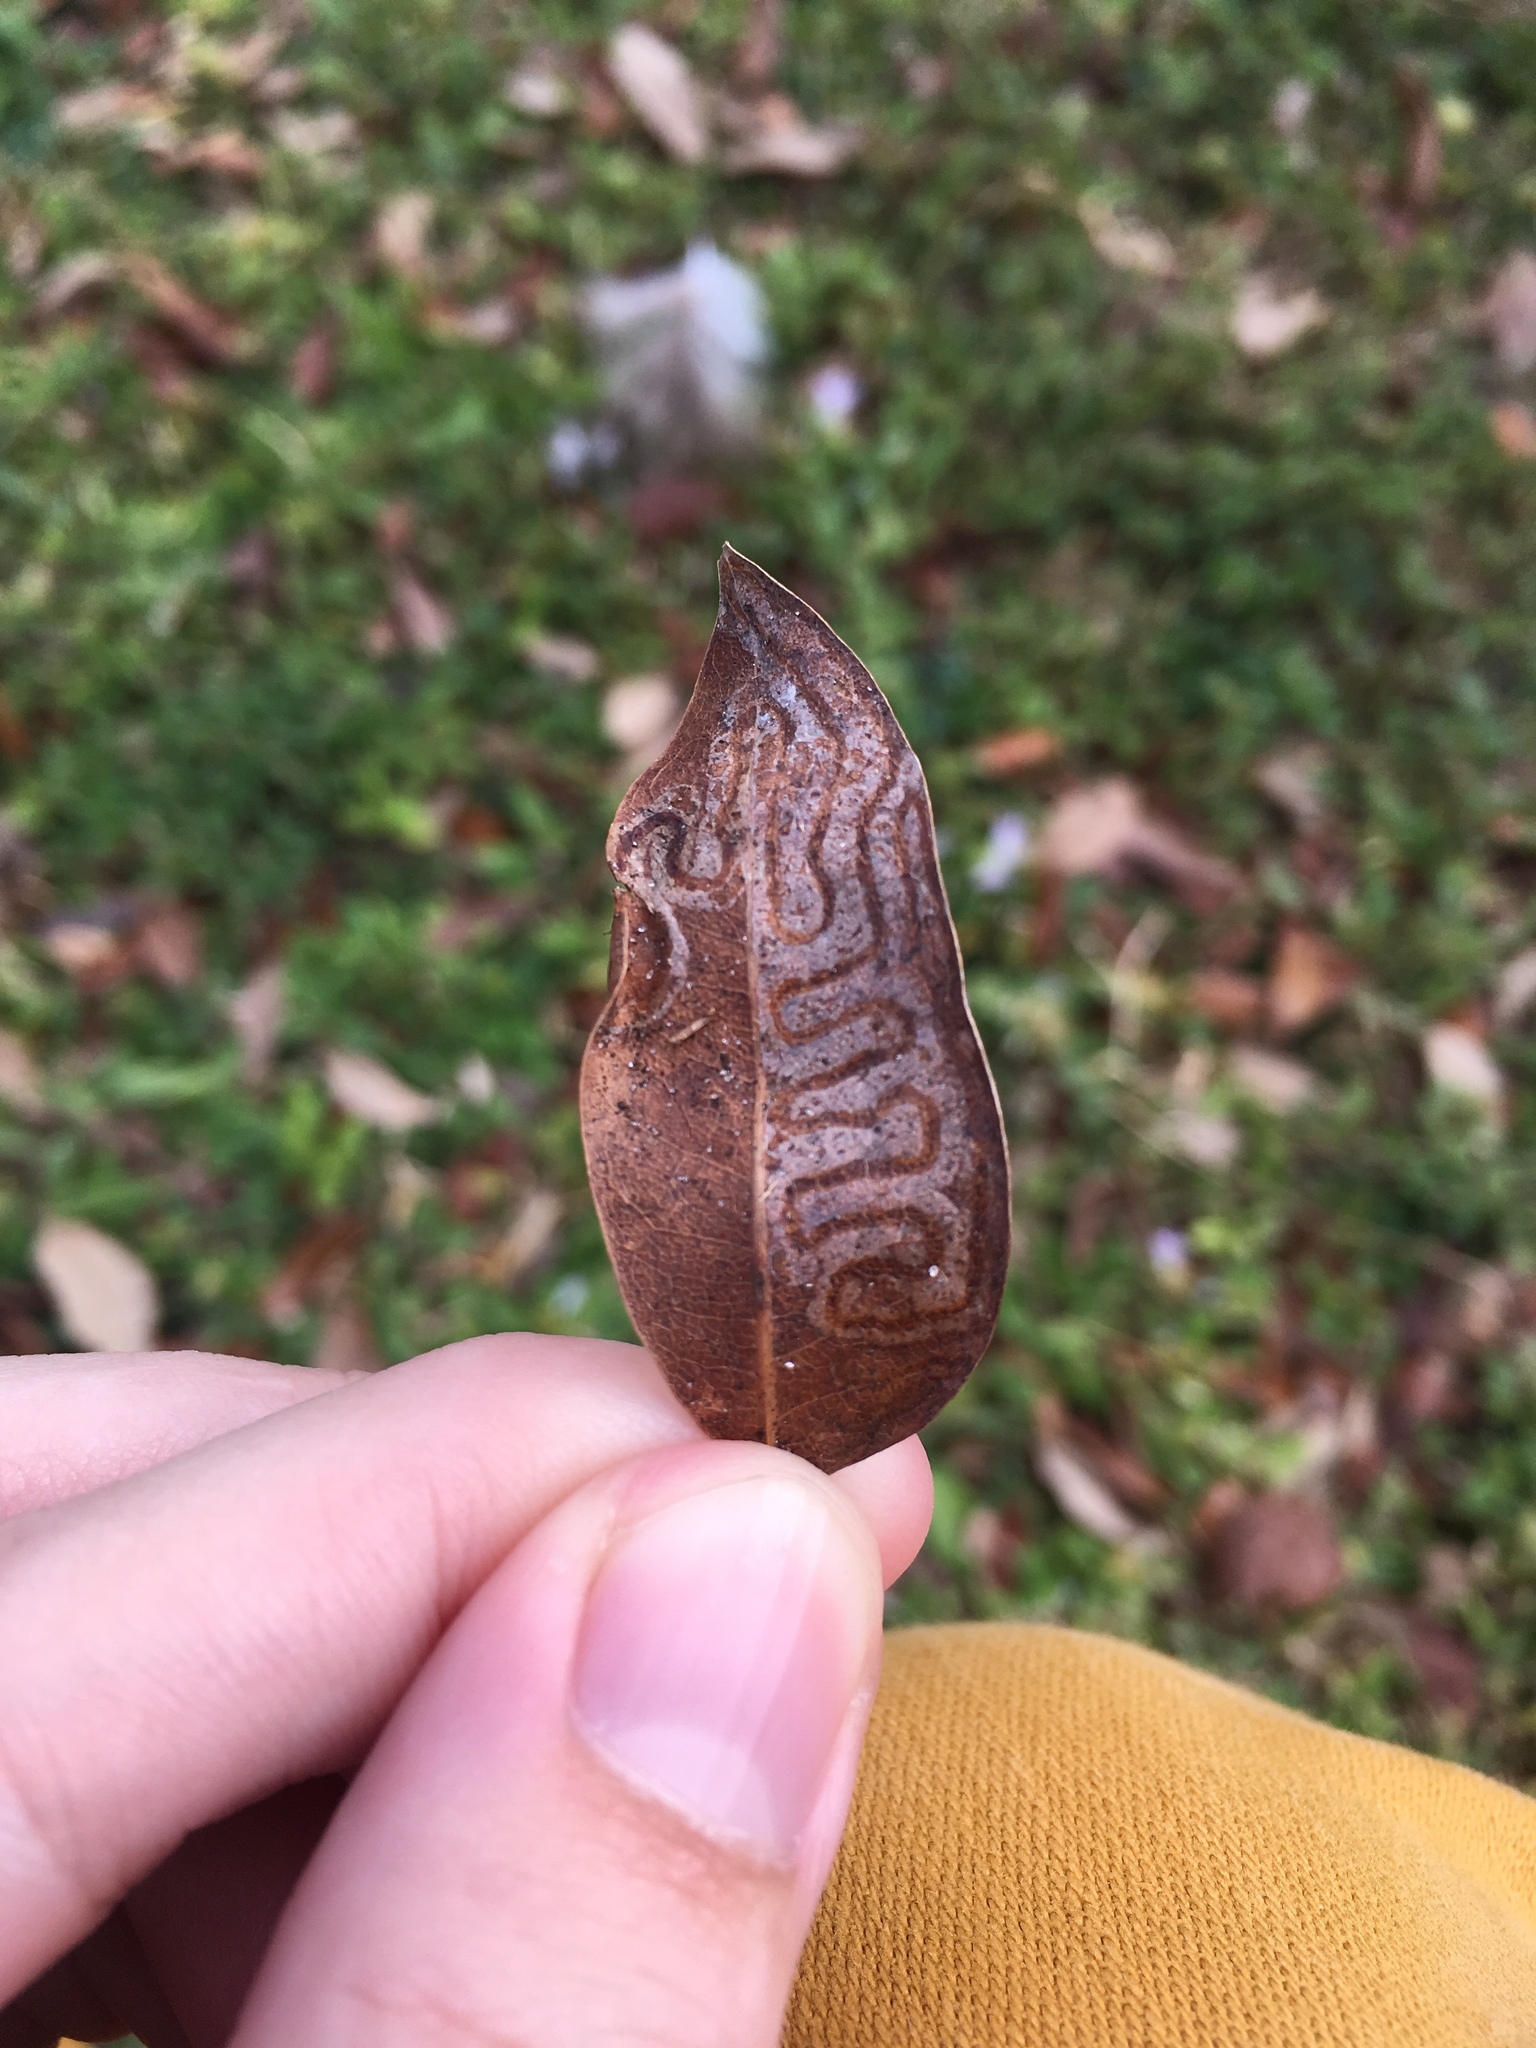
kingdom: Animalia
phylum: Arthropoda
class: Insecta
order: Lepidoptera
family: Gracillariidae
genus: Phyllocnistis
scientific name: Phyllocnistis meliacella
